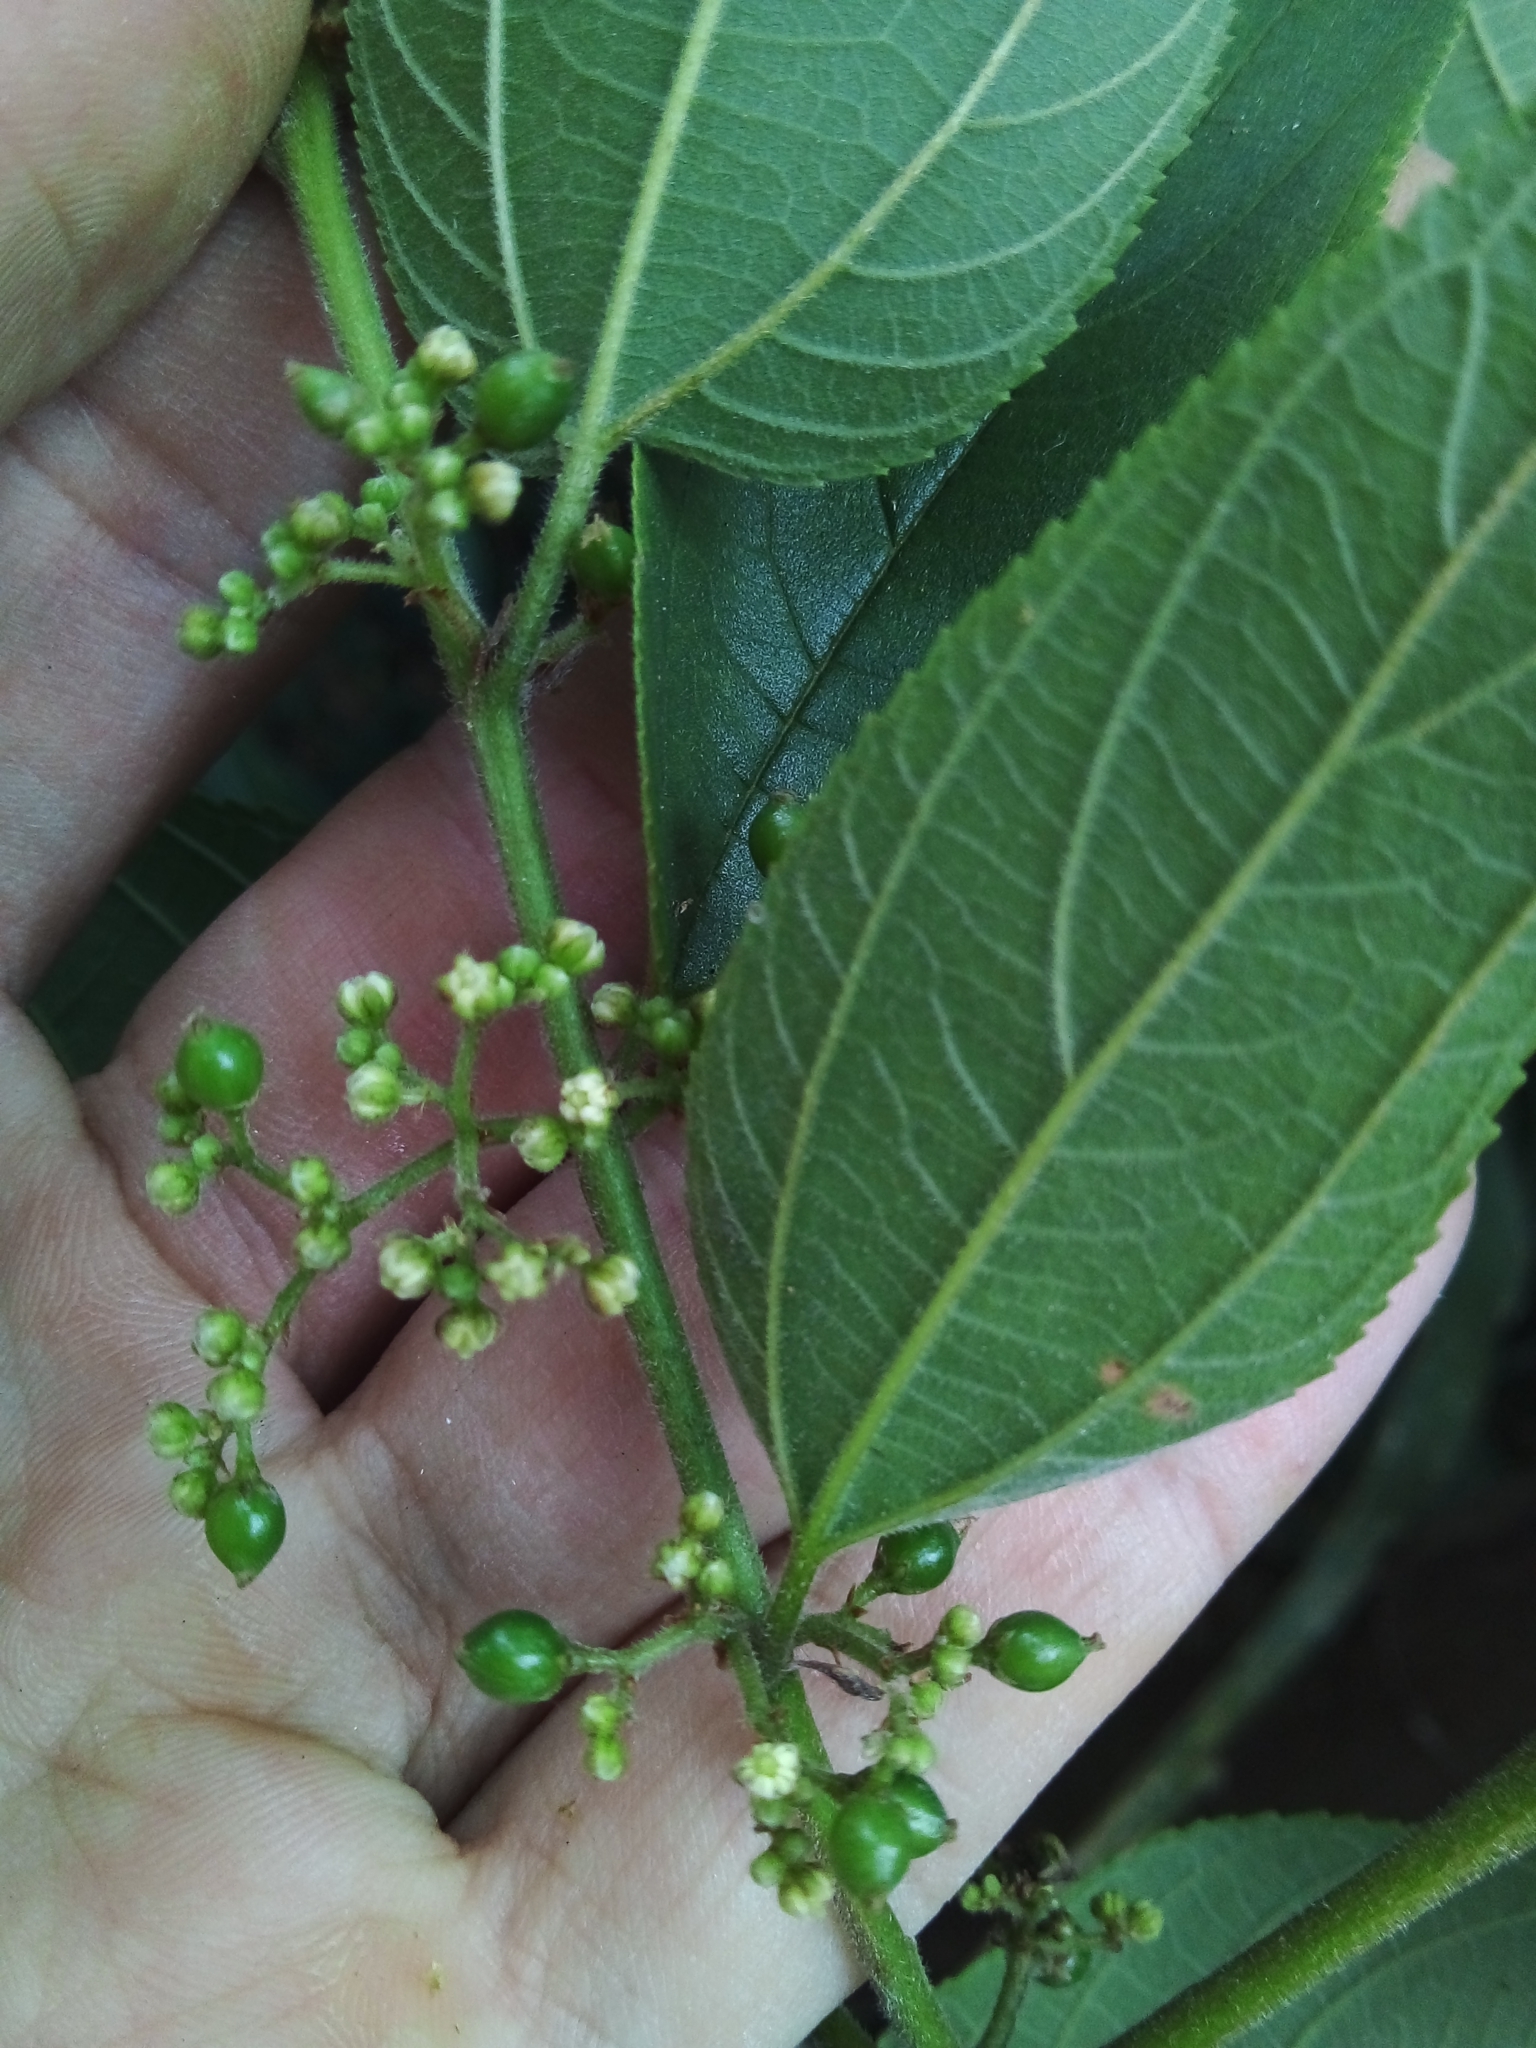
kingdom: Plantae
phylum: Tracheophyta
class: Magnoliopsida
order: Rosales
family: Cannabaceae
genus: Trema
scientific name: Trema micranthum
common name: Jamaican nettletree
